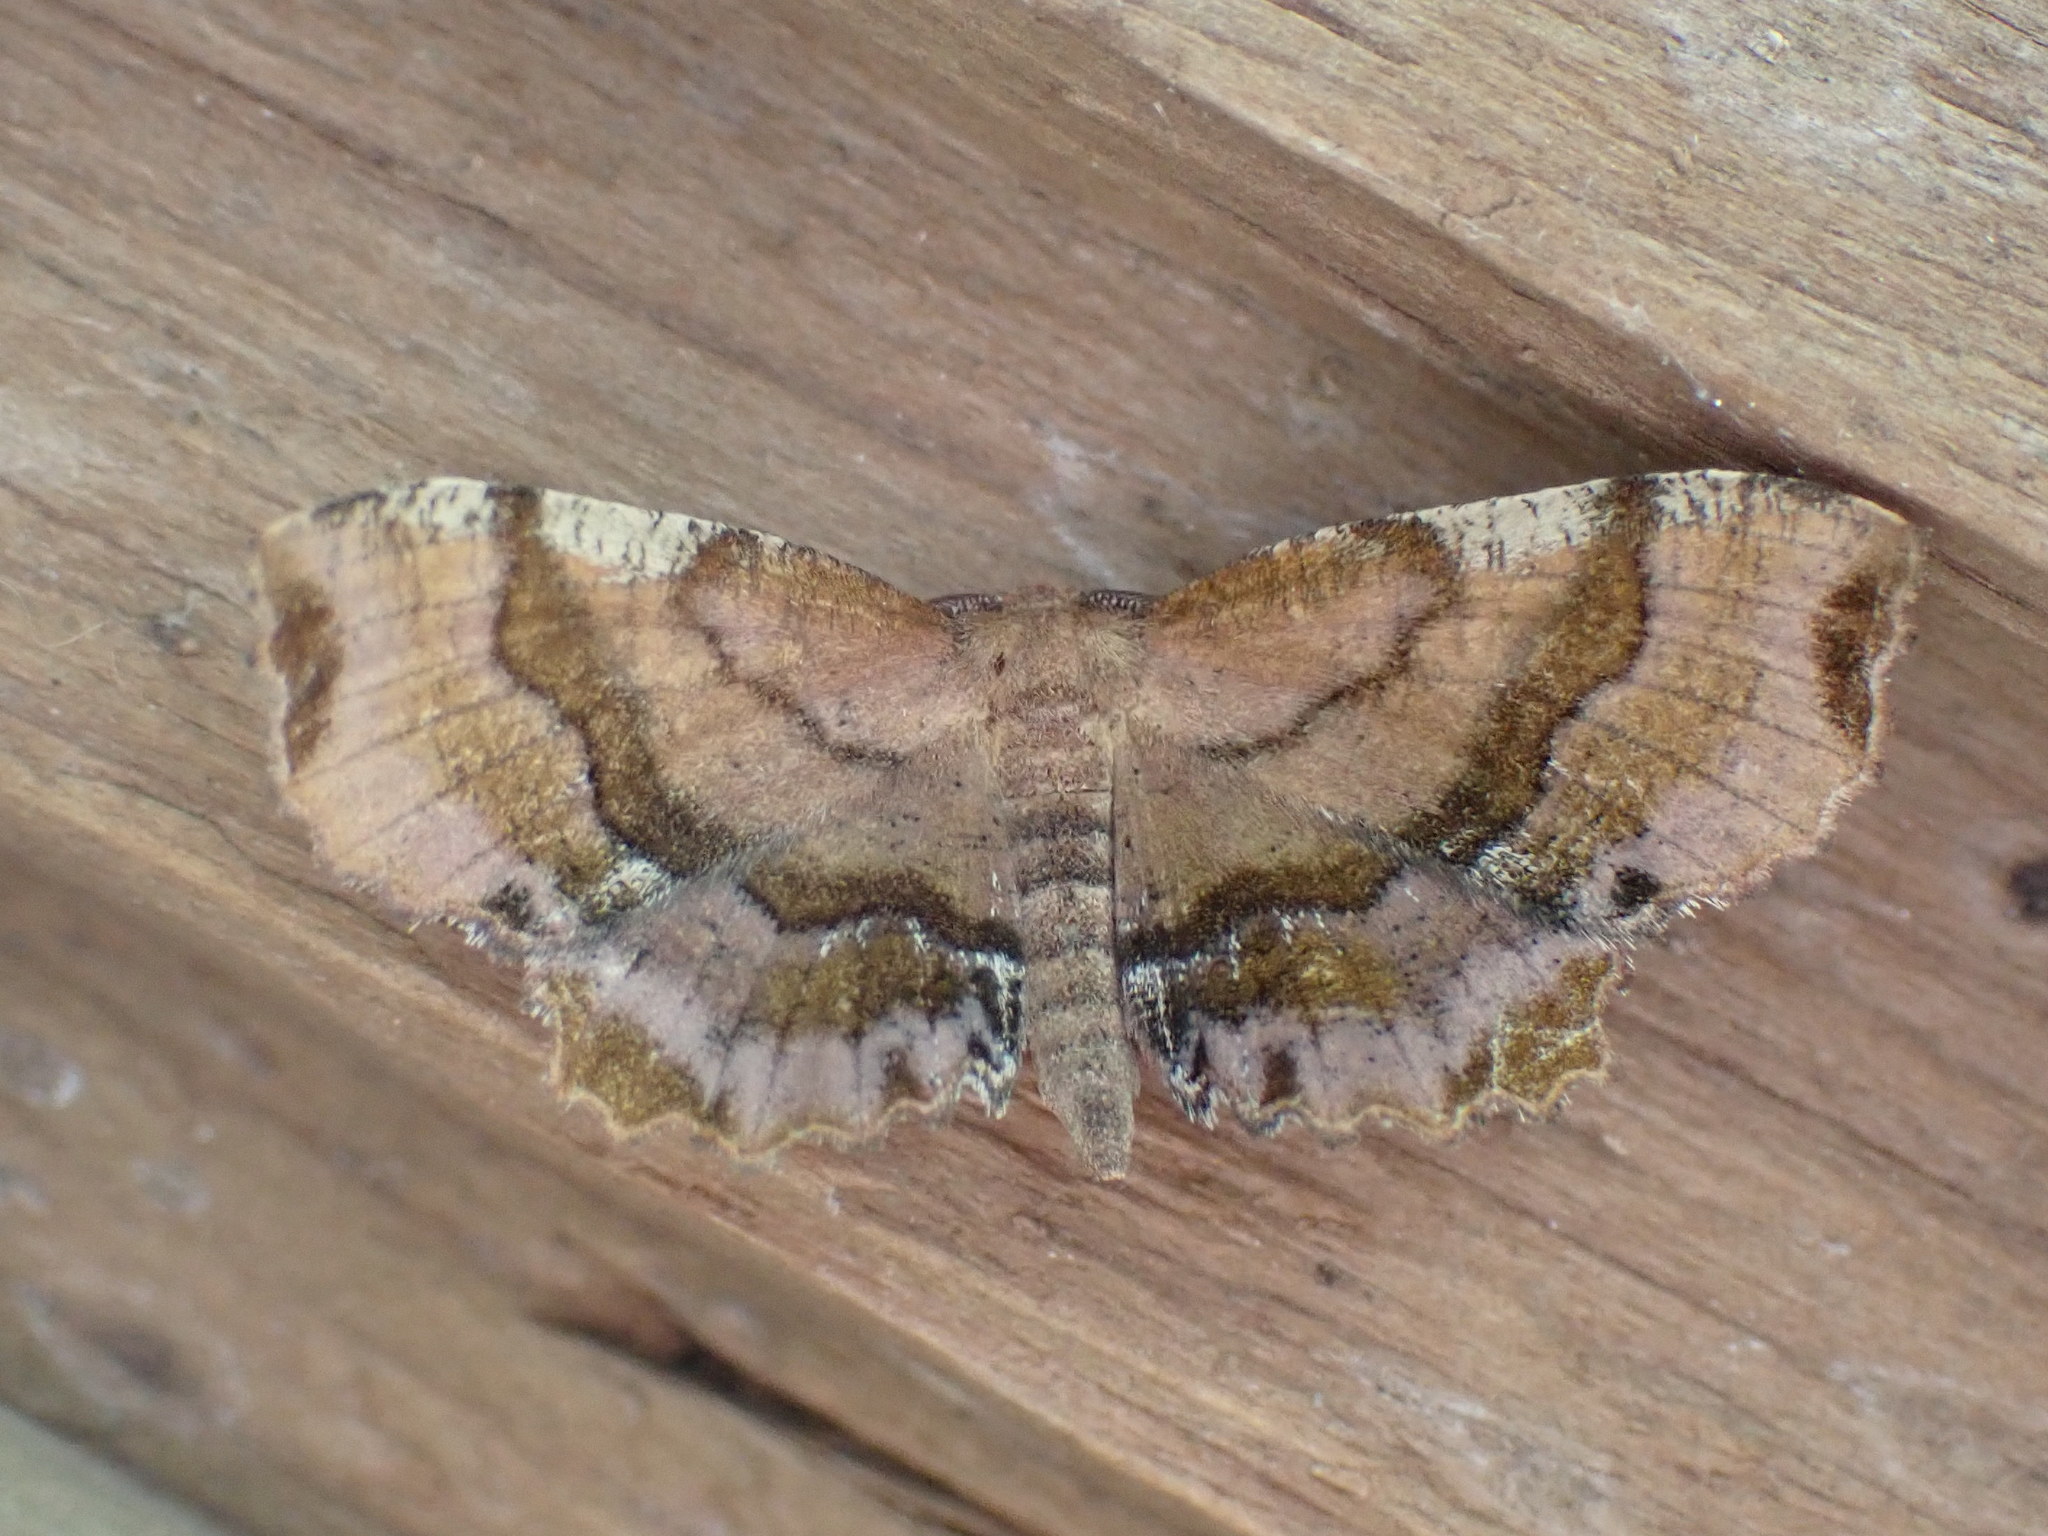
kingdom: Animalia
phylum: Arthropoda
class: Insecta
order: Lepidoptera
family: Geometridae
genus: Cepphis
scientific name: Cepphis armataria
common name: Scallop moth
